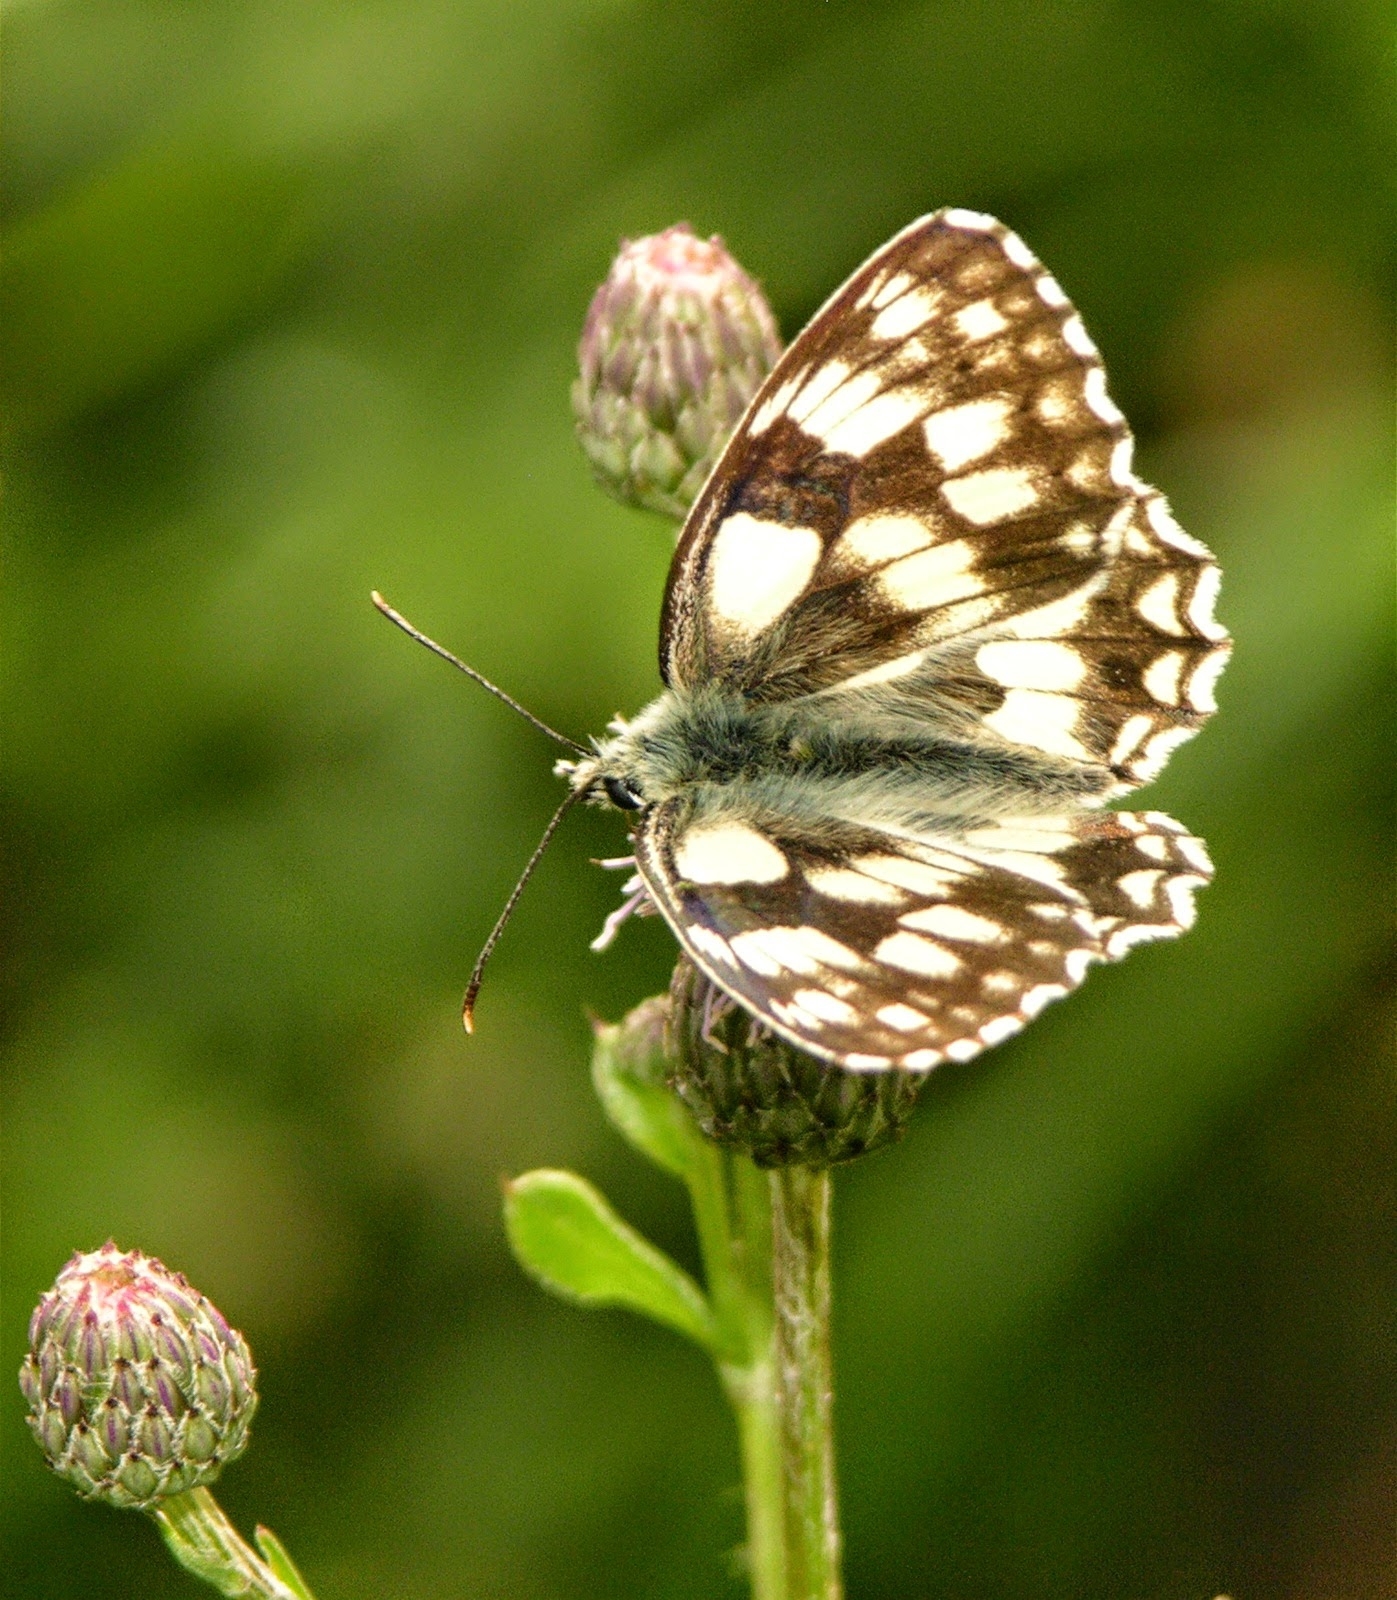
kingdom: Animalia
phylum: Arthropoda
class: Insecta
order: Lepidoptera
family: Nymphalidae
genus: Melanargia
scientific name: Melanargia galathea
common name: Marbled white
